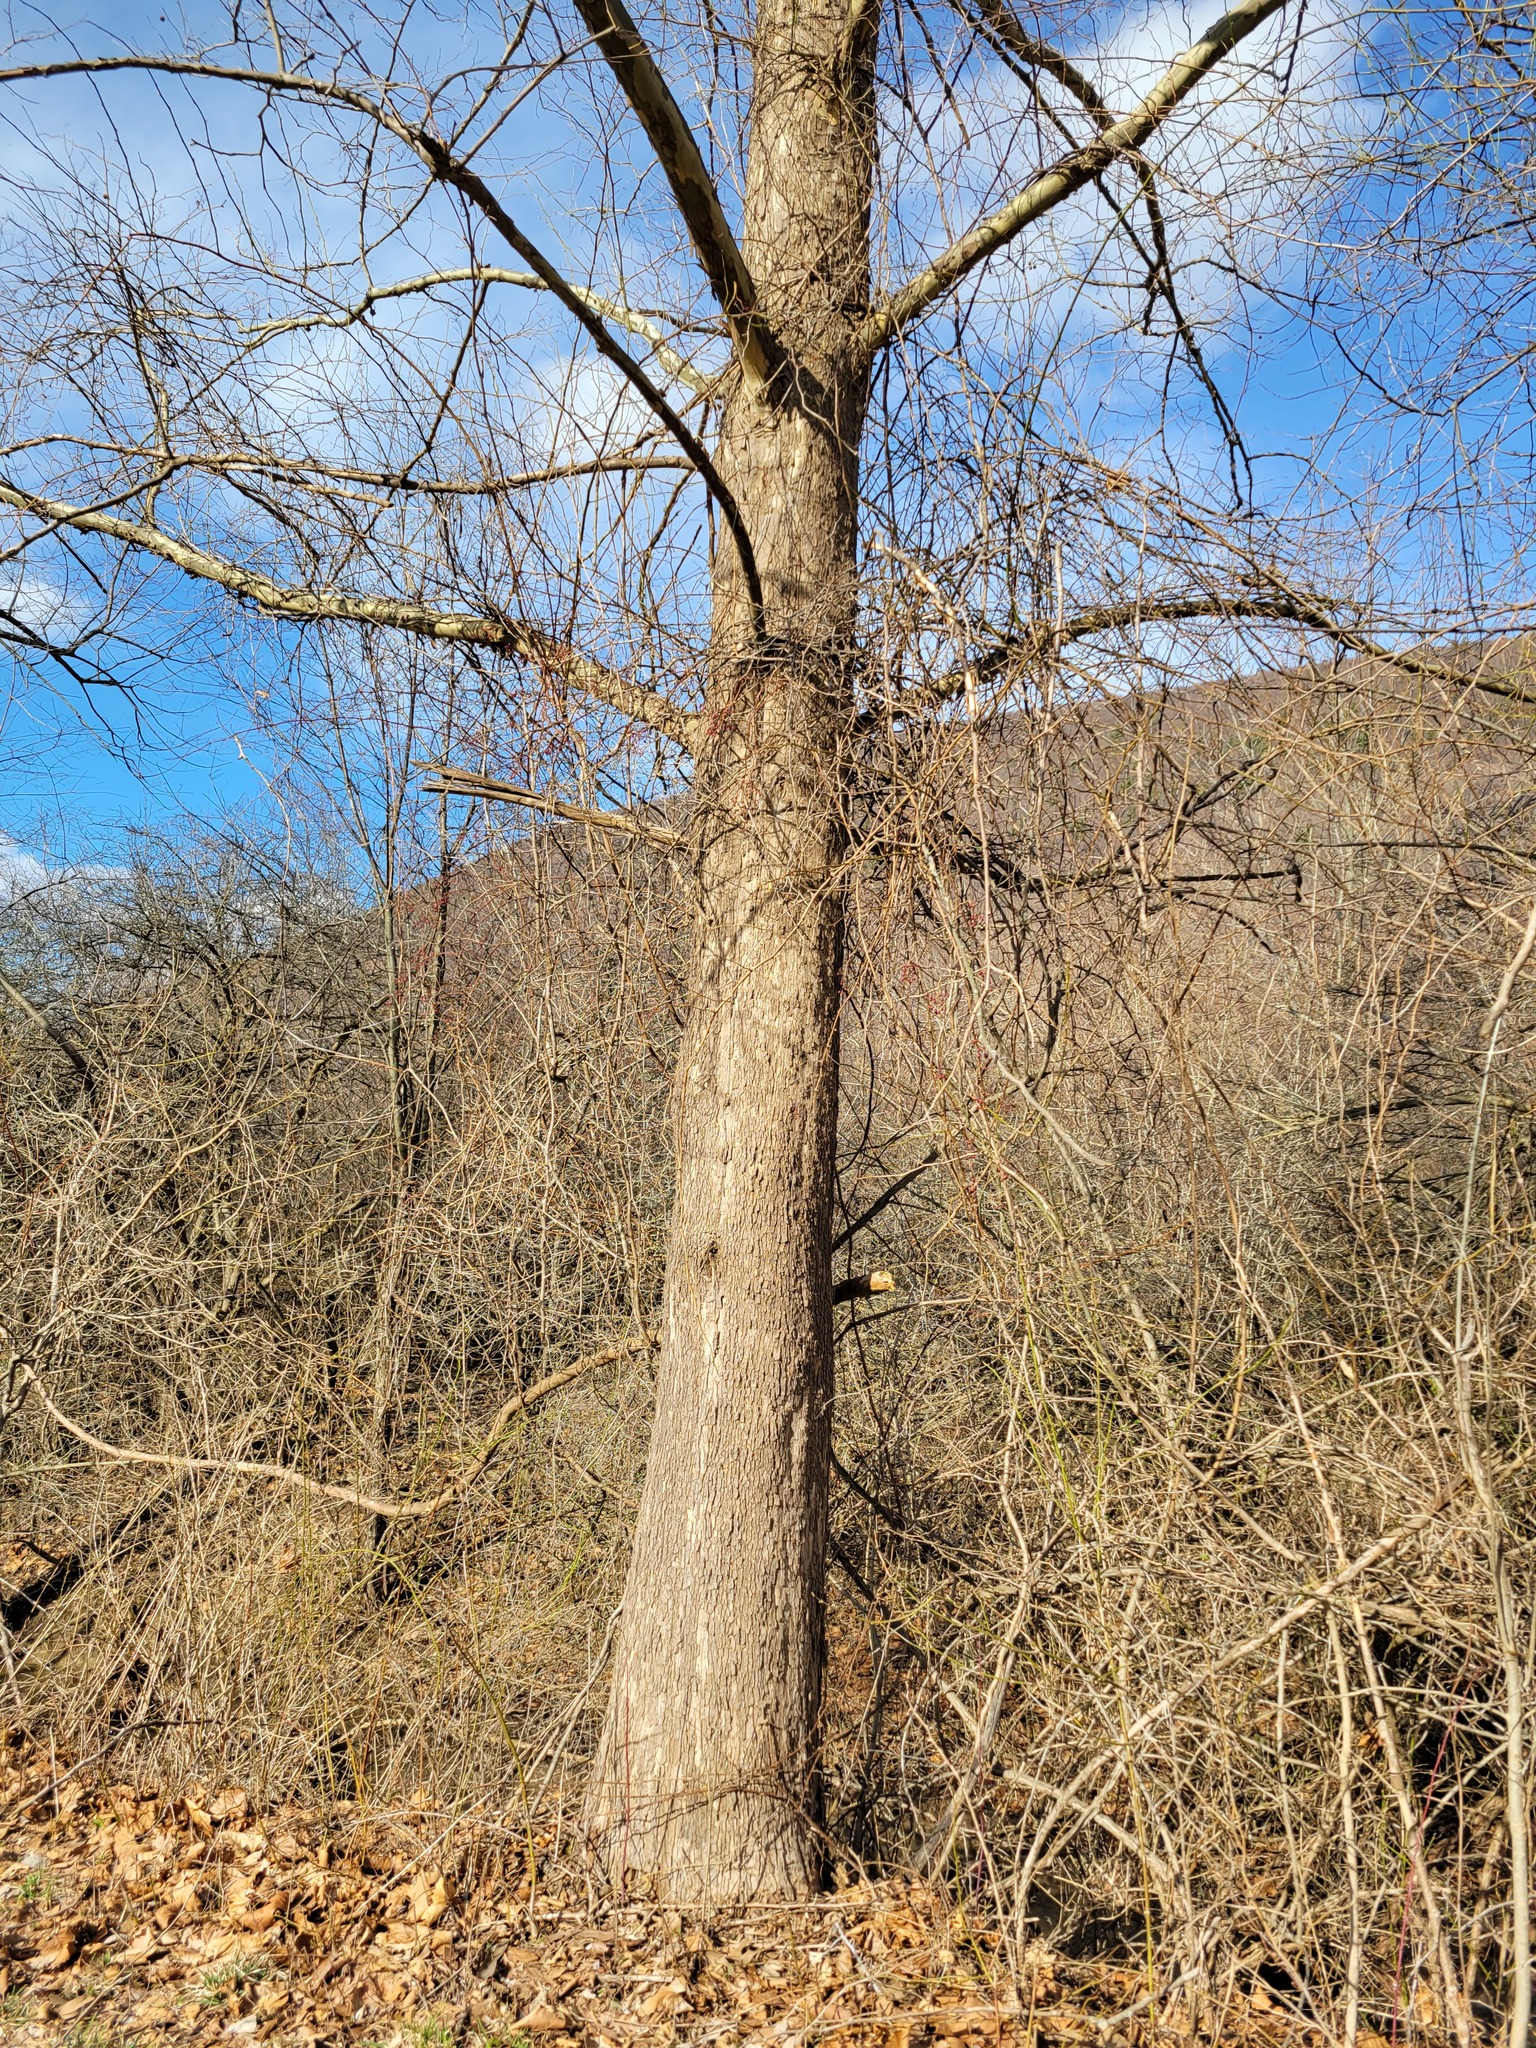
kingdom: Plantae
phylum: Tracheophyta
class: Magnoliopsida
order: Proteales
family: Platanaceae
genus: Platanus
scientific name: Platanus occidentalis
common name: American sycamore
